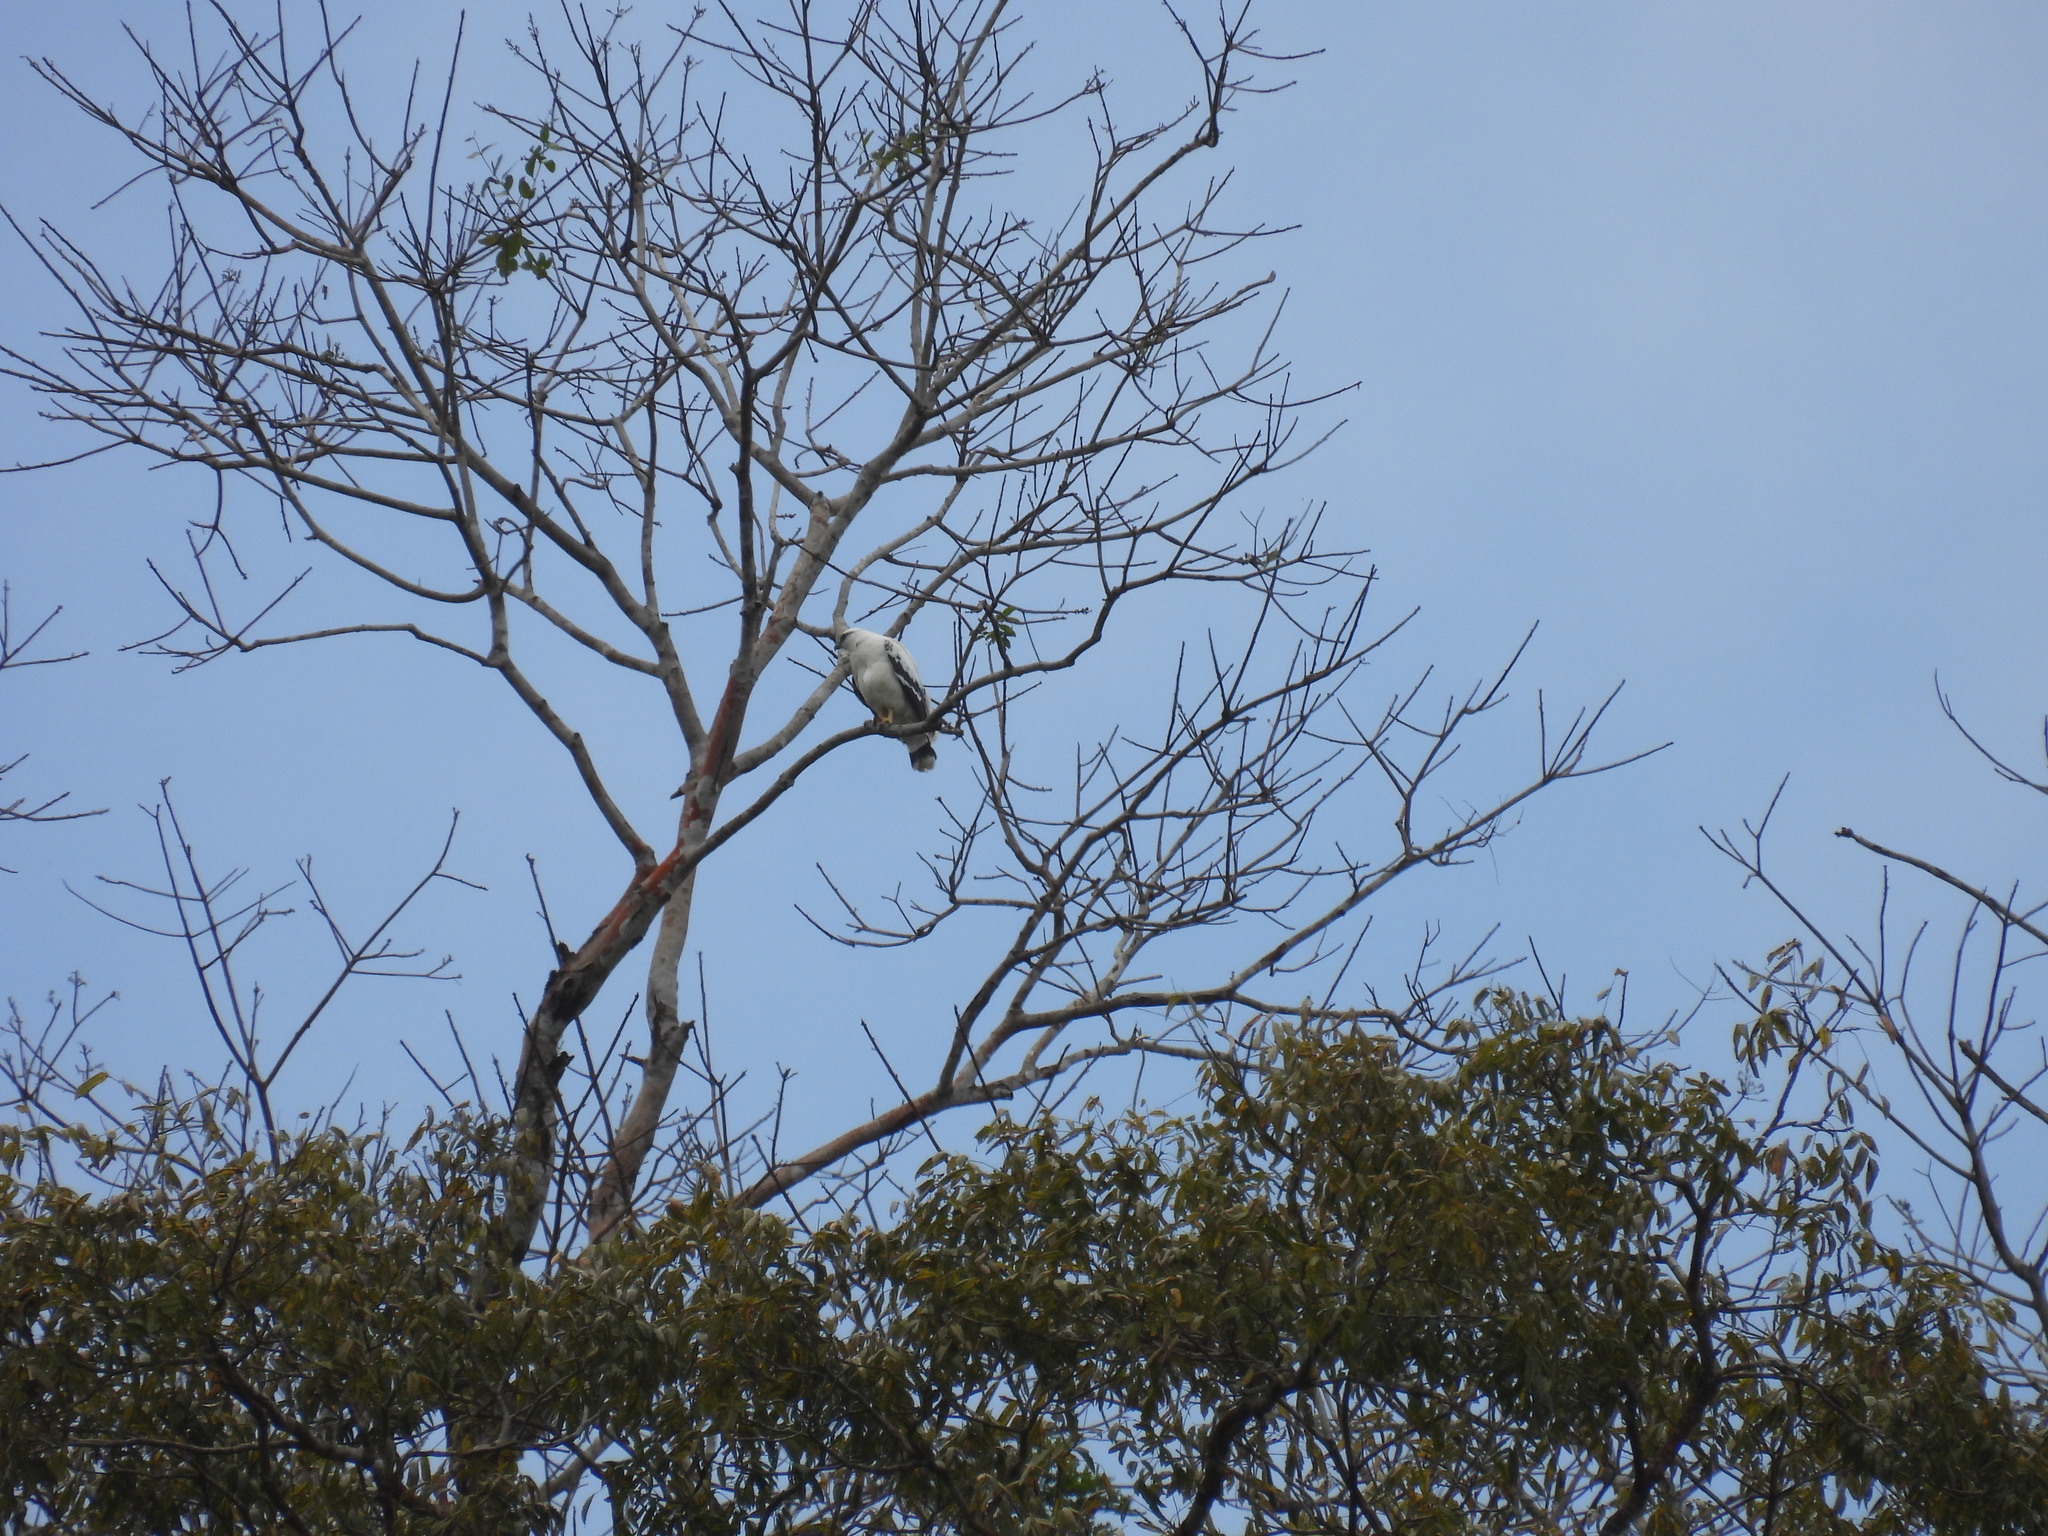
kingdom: Animalia
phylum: Chordata
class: Aves
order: Accipitriformes
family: Accipitridae
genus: Leucopternis
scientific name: Leucopternis albicollis
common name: White hawk
